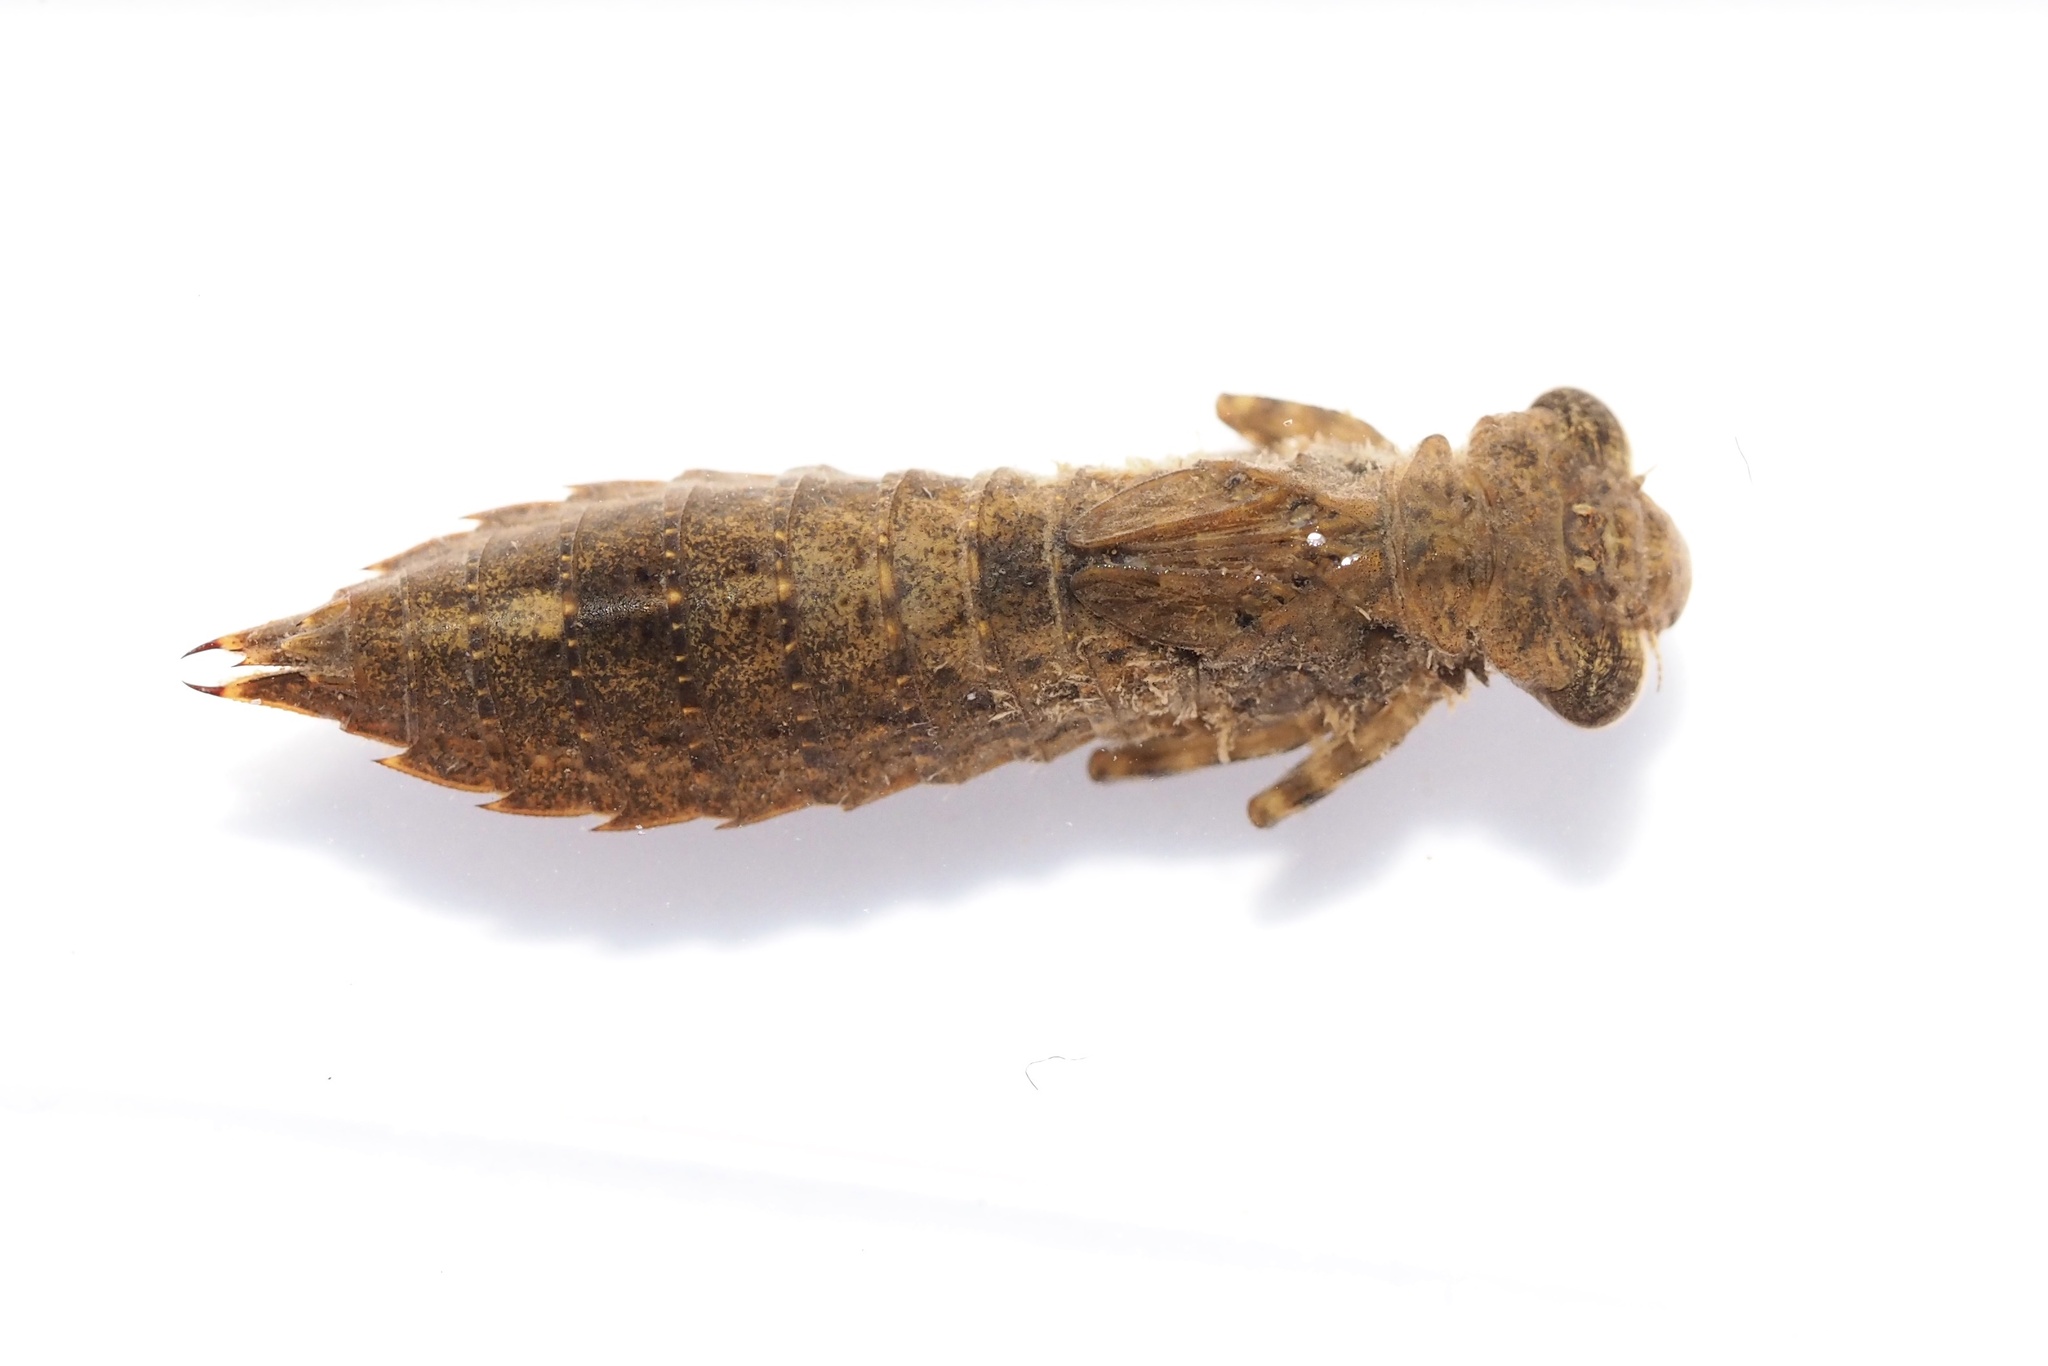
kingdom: Animalia
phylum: Arthropoda
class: Insecta
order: Odonata
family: Aeshnidae
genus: Aeschnophlebia
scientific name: Aeschnophlebia
